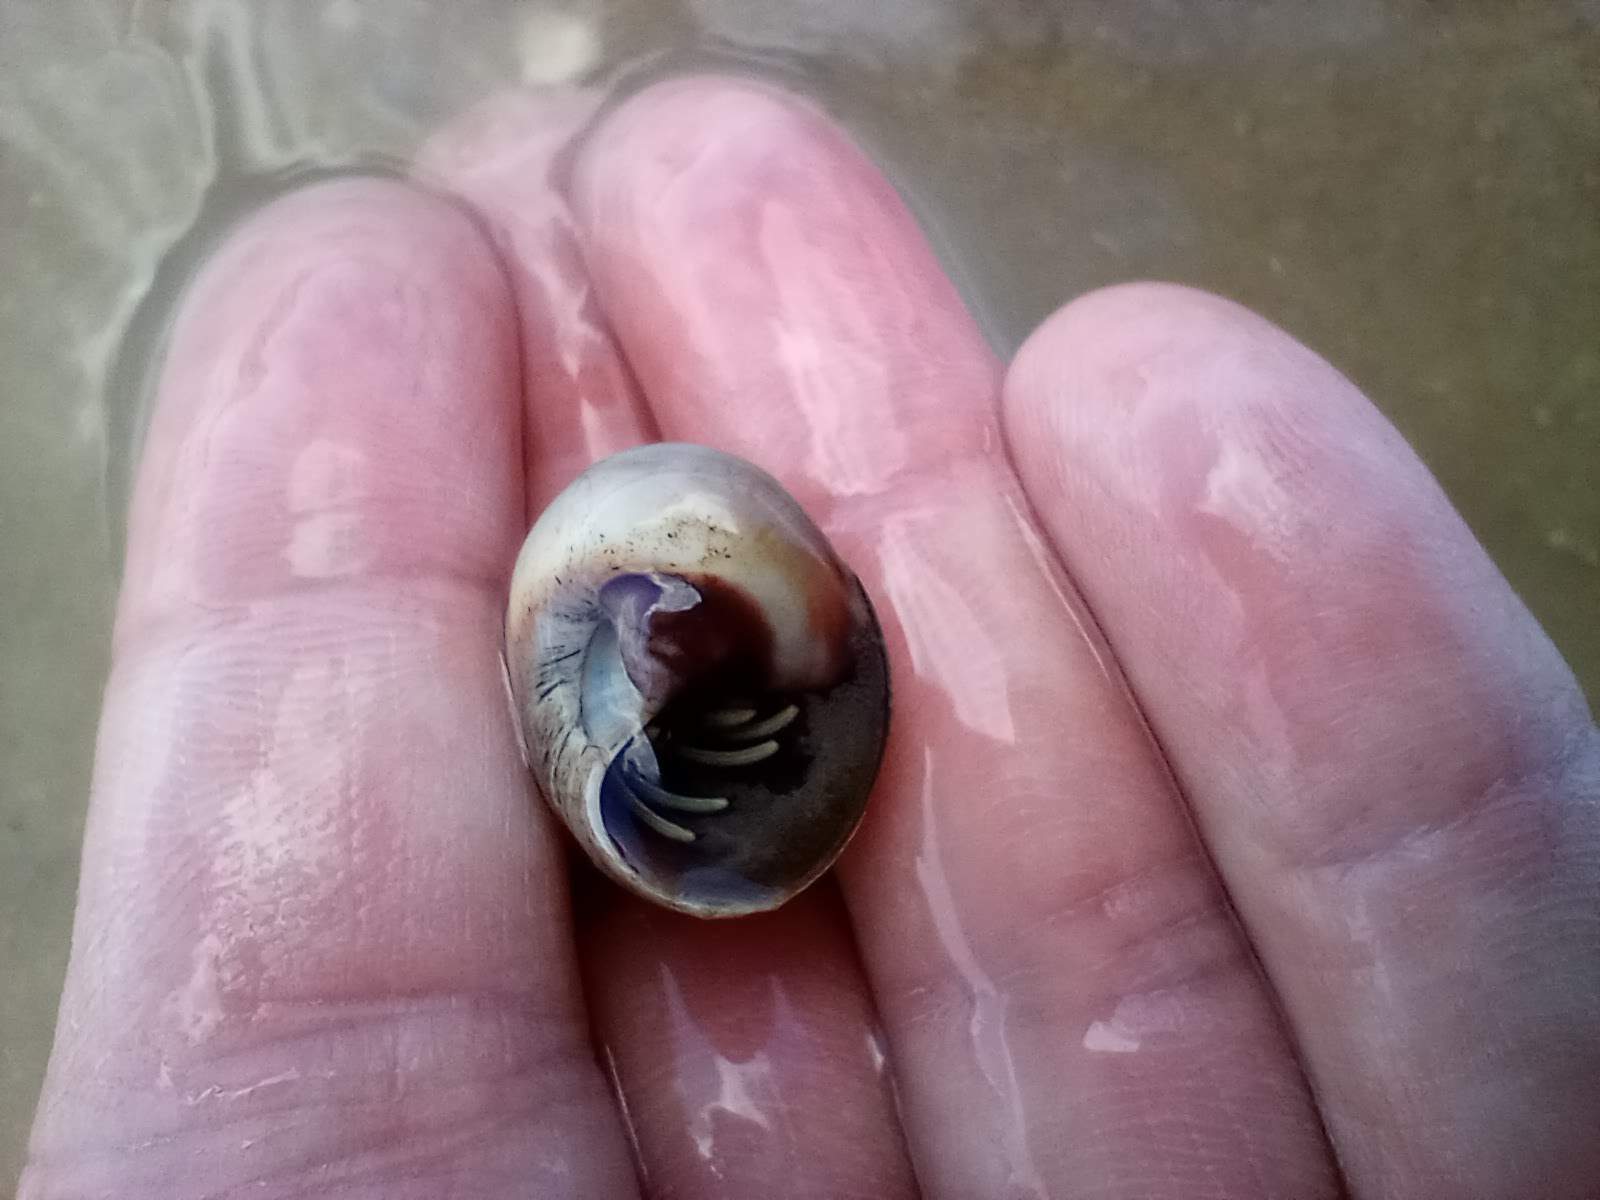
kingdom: Animalia
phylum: Arthropoda
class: Malacostraca
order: Decapoda
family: Diogenidae
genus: Clibanarius
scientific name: Clibanarius vittatus
